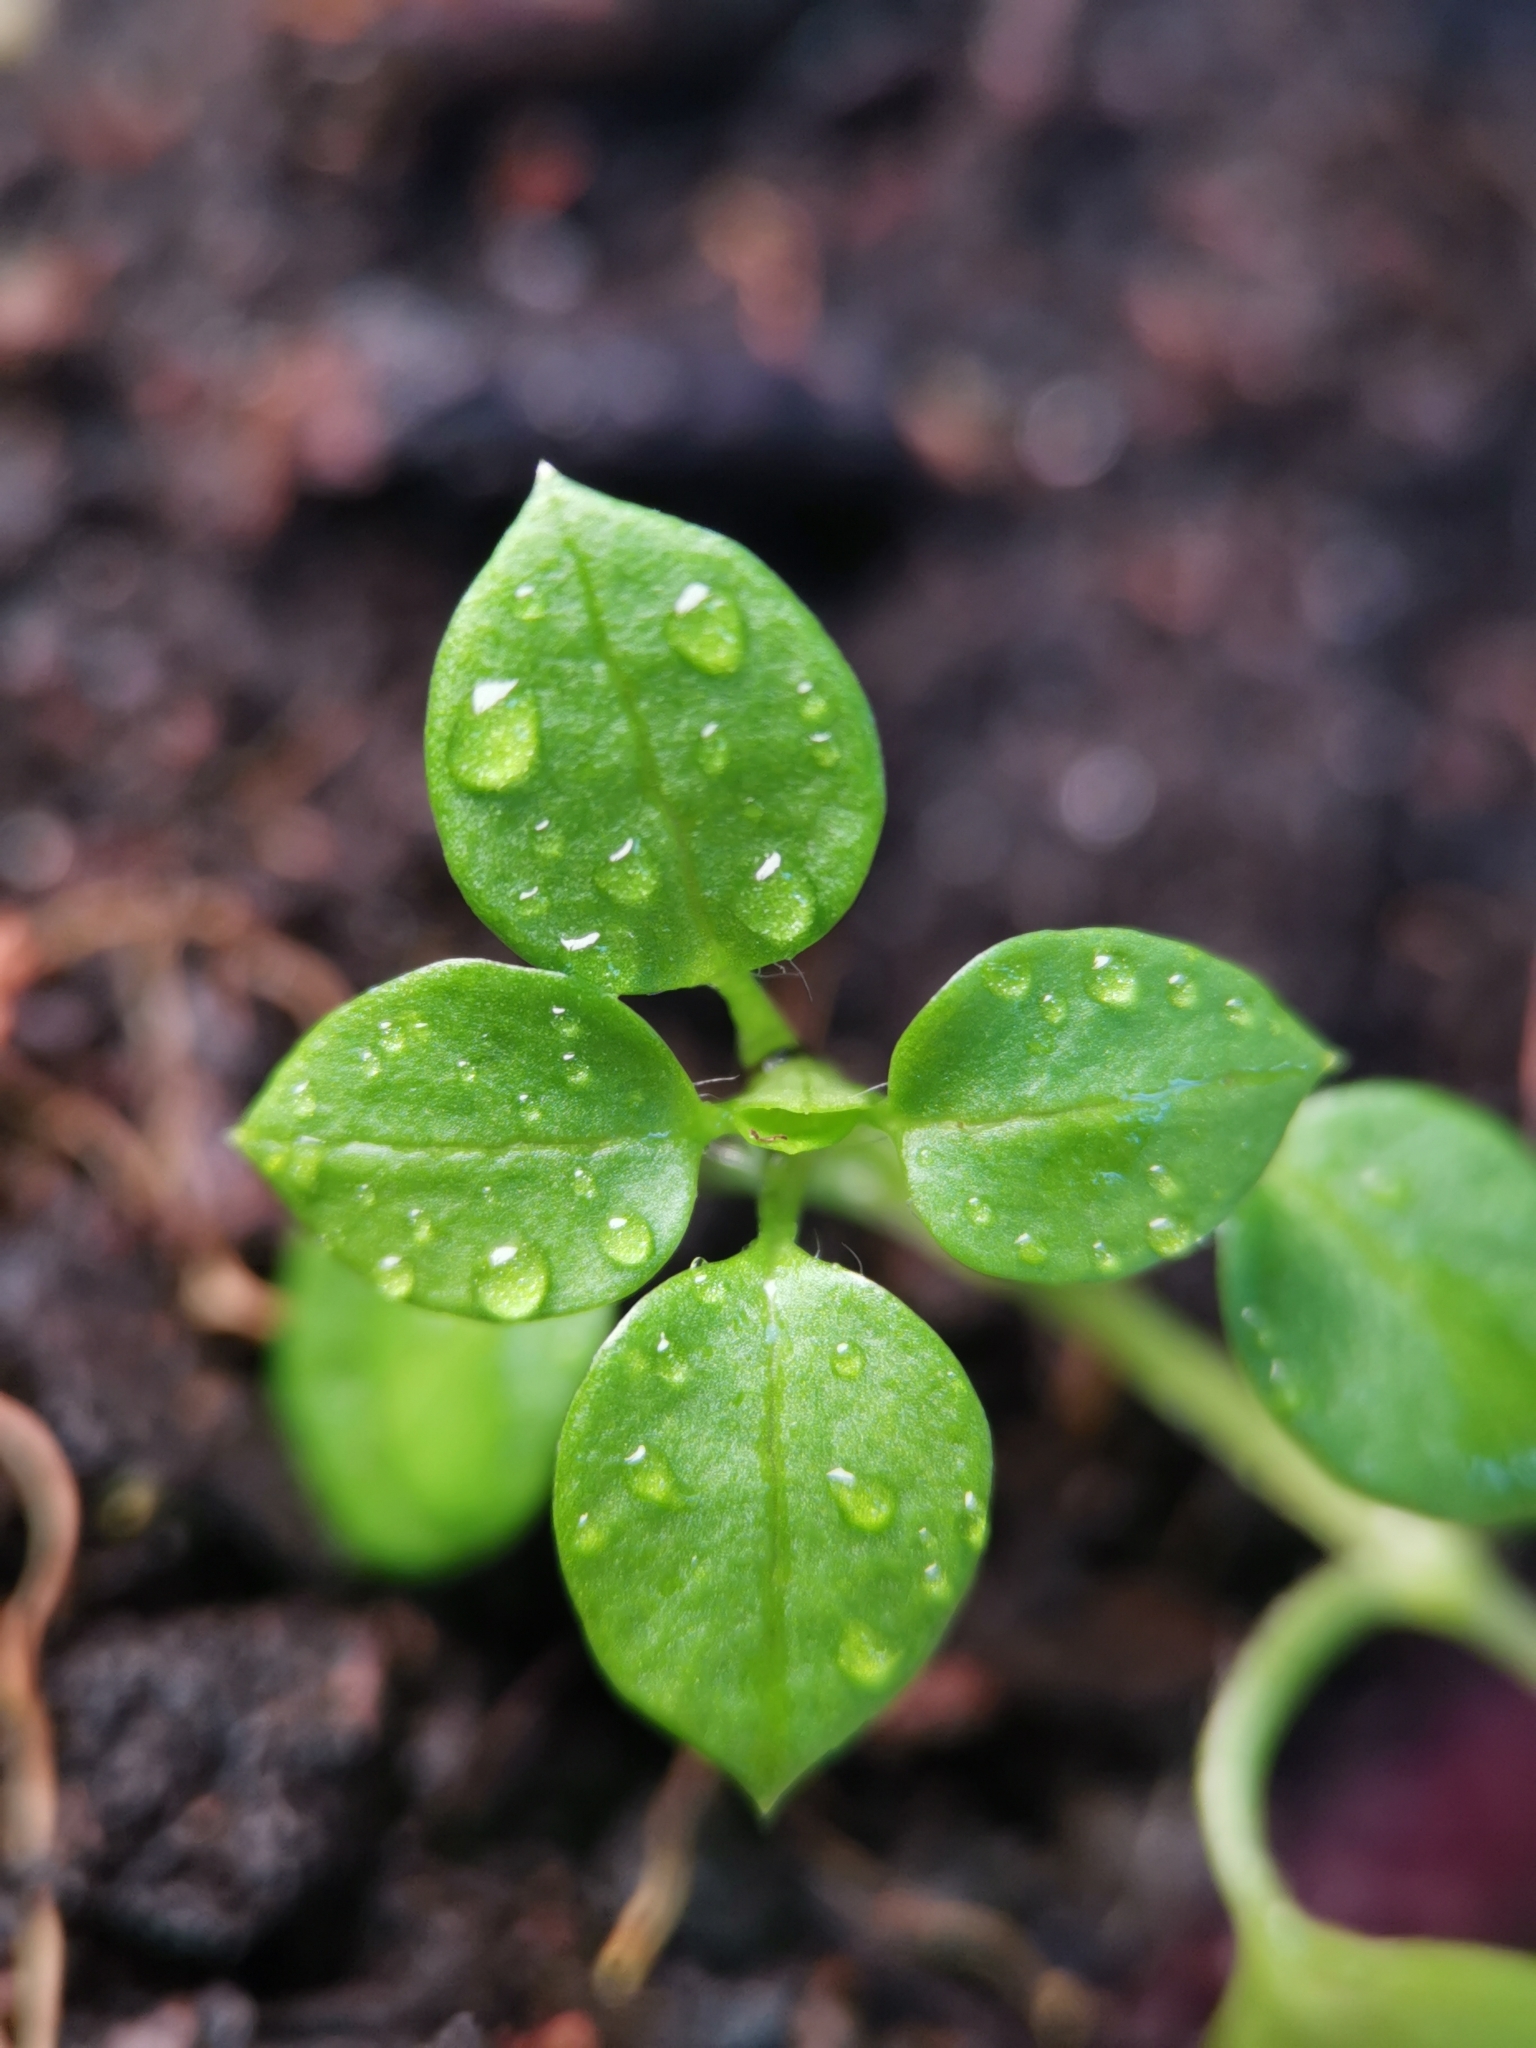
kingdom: Plantae
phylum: Tracheophyta
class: Magnoliopsida
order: Caryophyllales
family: Caryophyllaceae
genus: Stellaria
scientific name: Stellaria media
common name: Common chickweed
